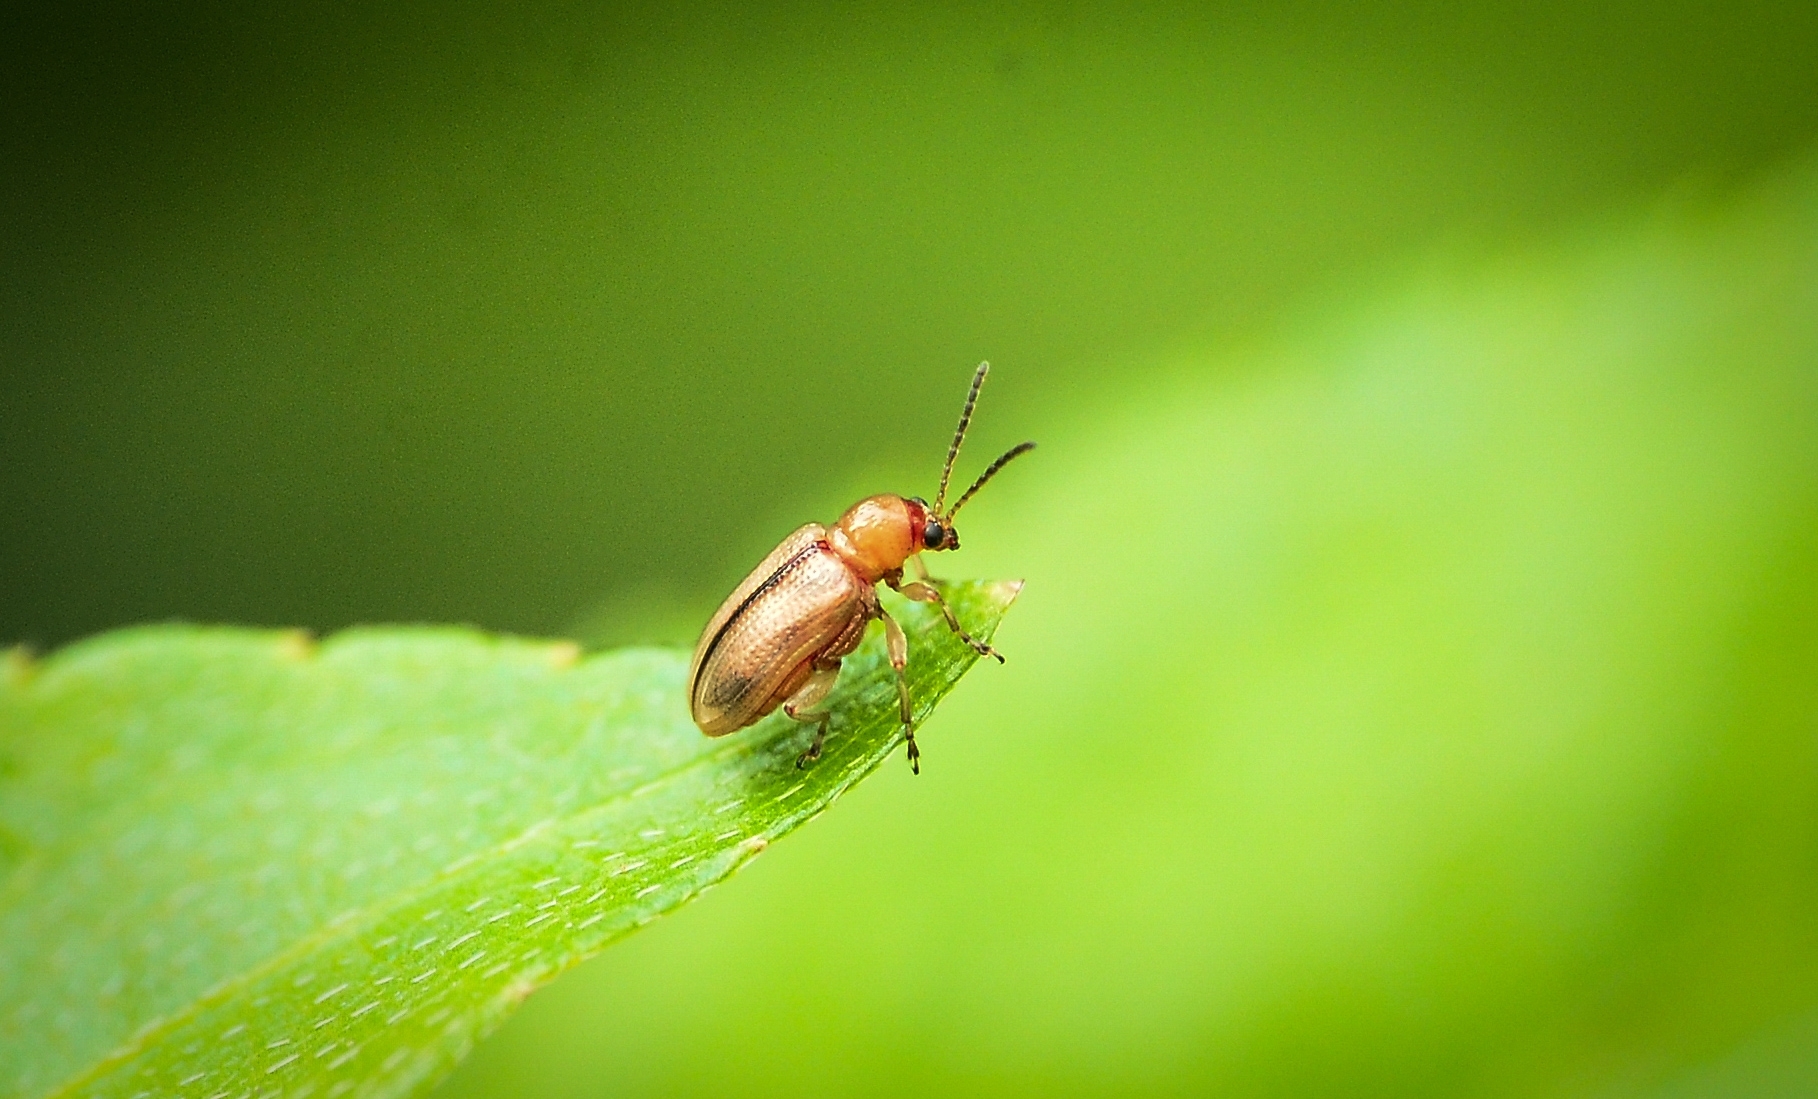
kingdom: Animalia
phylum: Arthropoda
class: Insecta
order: Coleoptera
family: Chrysomelidae
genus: Aulacophora
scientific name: Aulacophora indica
